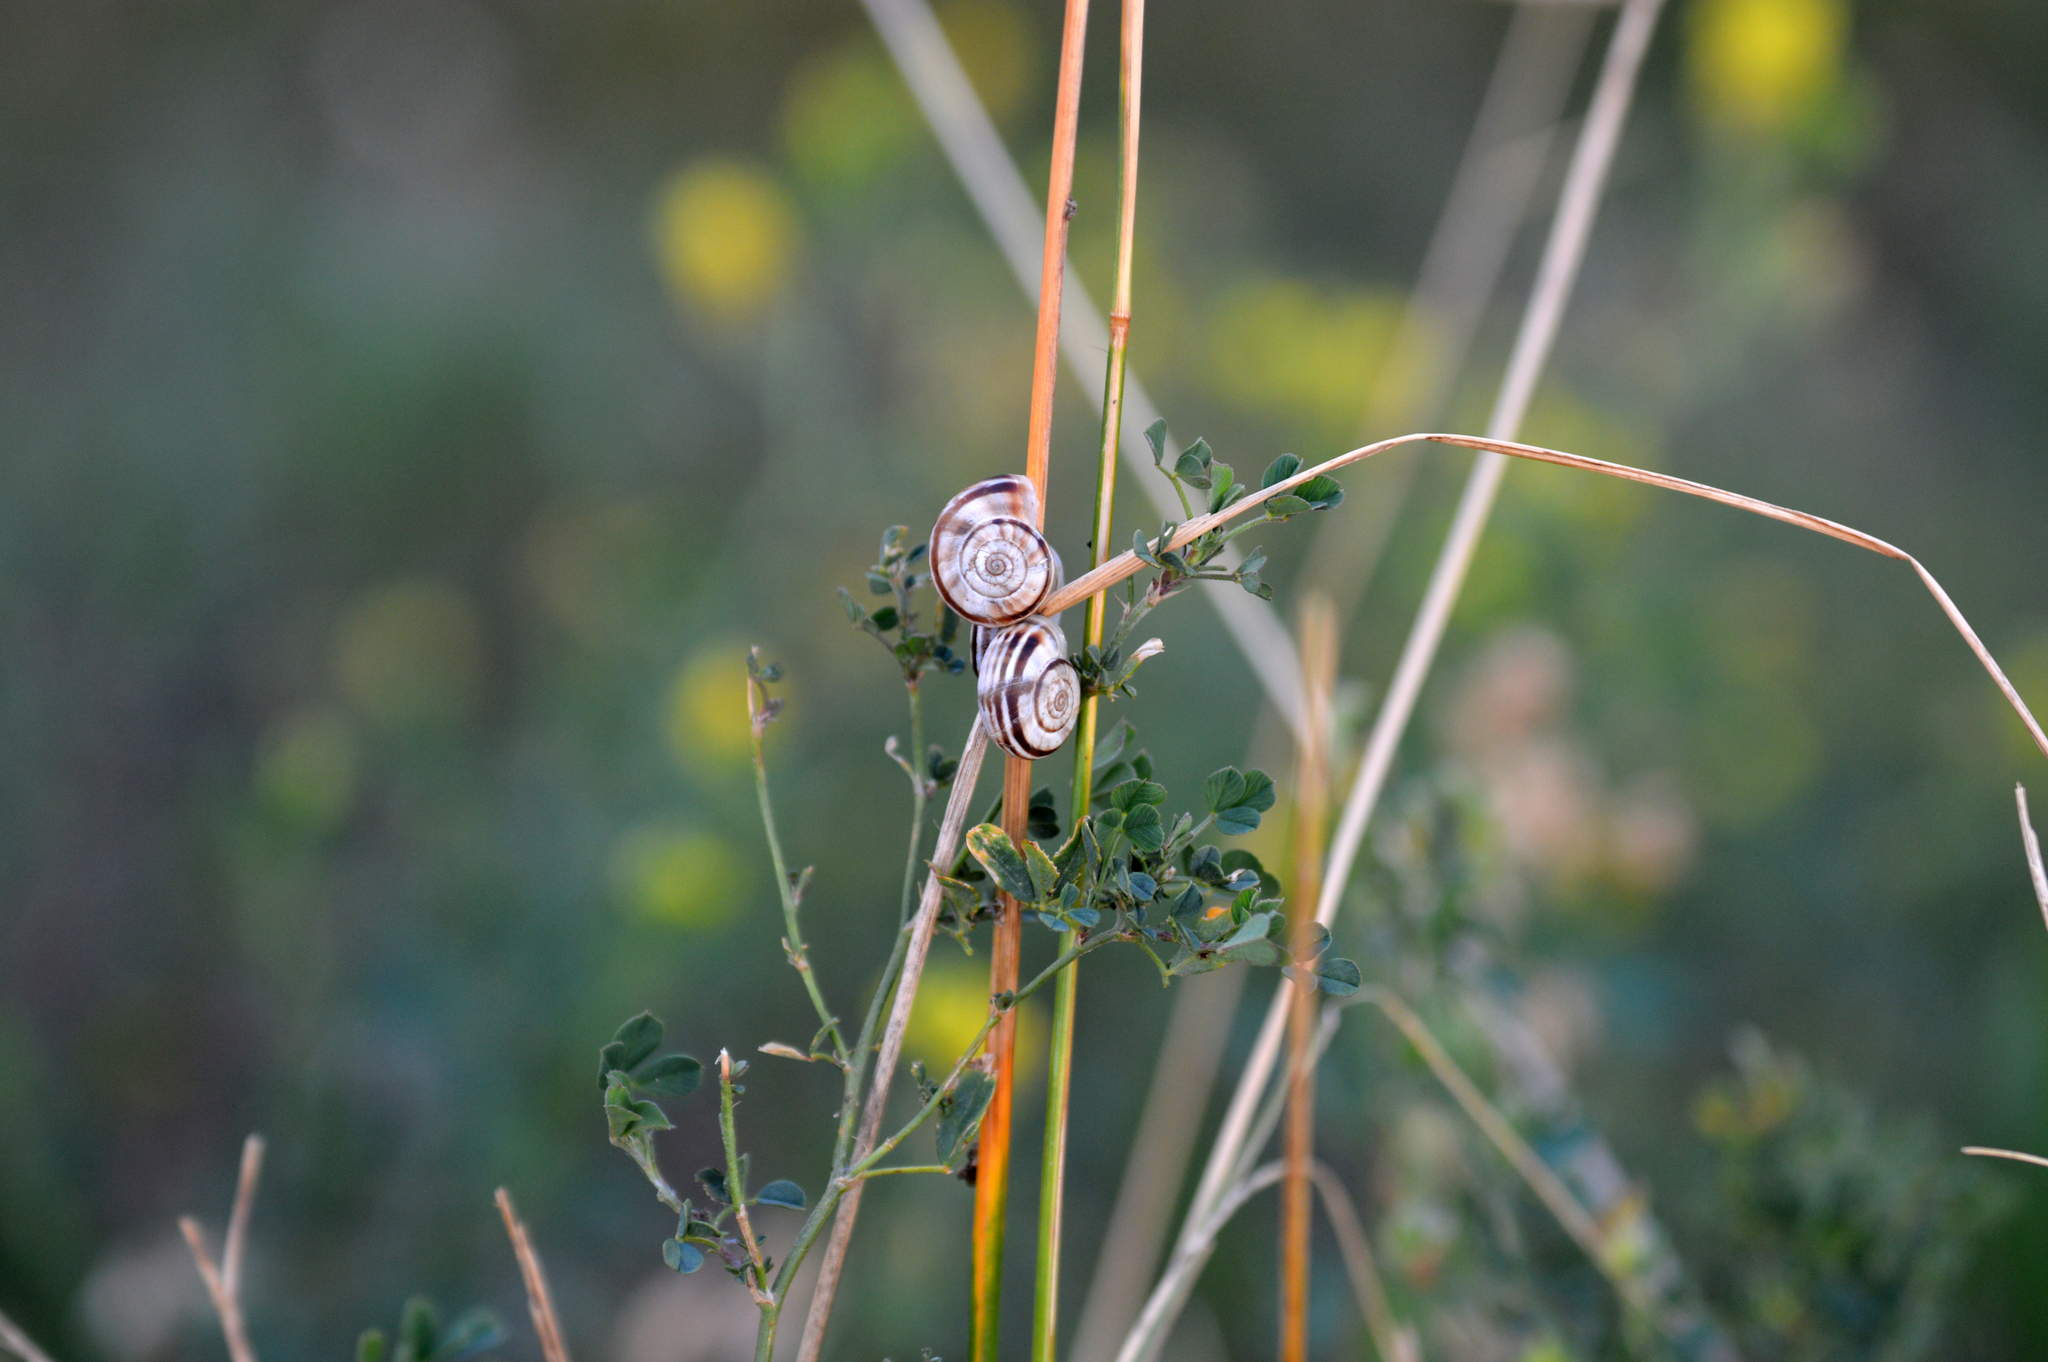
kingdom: Animalia
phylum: Mollusca
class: Gastropoda
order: Stylommatophora
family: Geomitridae
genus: Xerolenta
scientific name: Xerolenta obvia
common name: White heath snail
